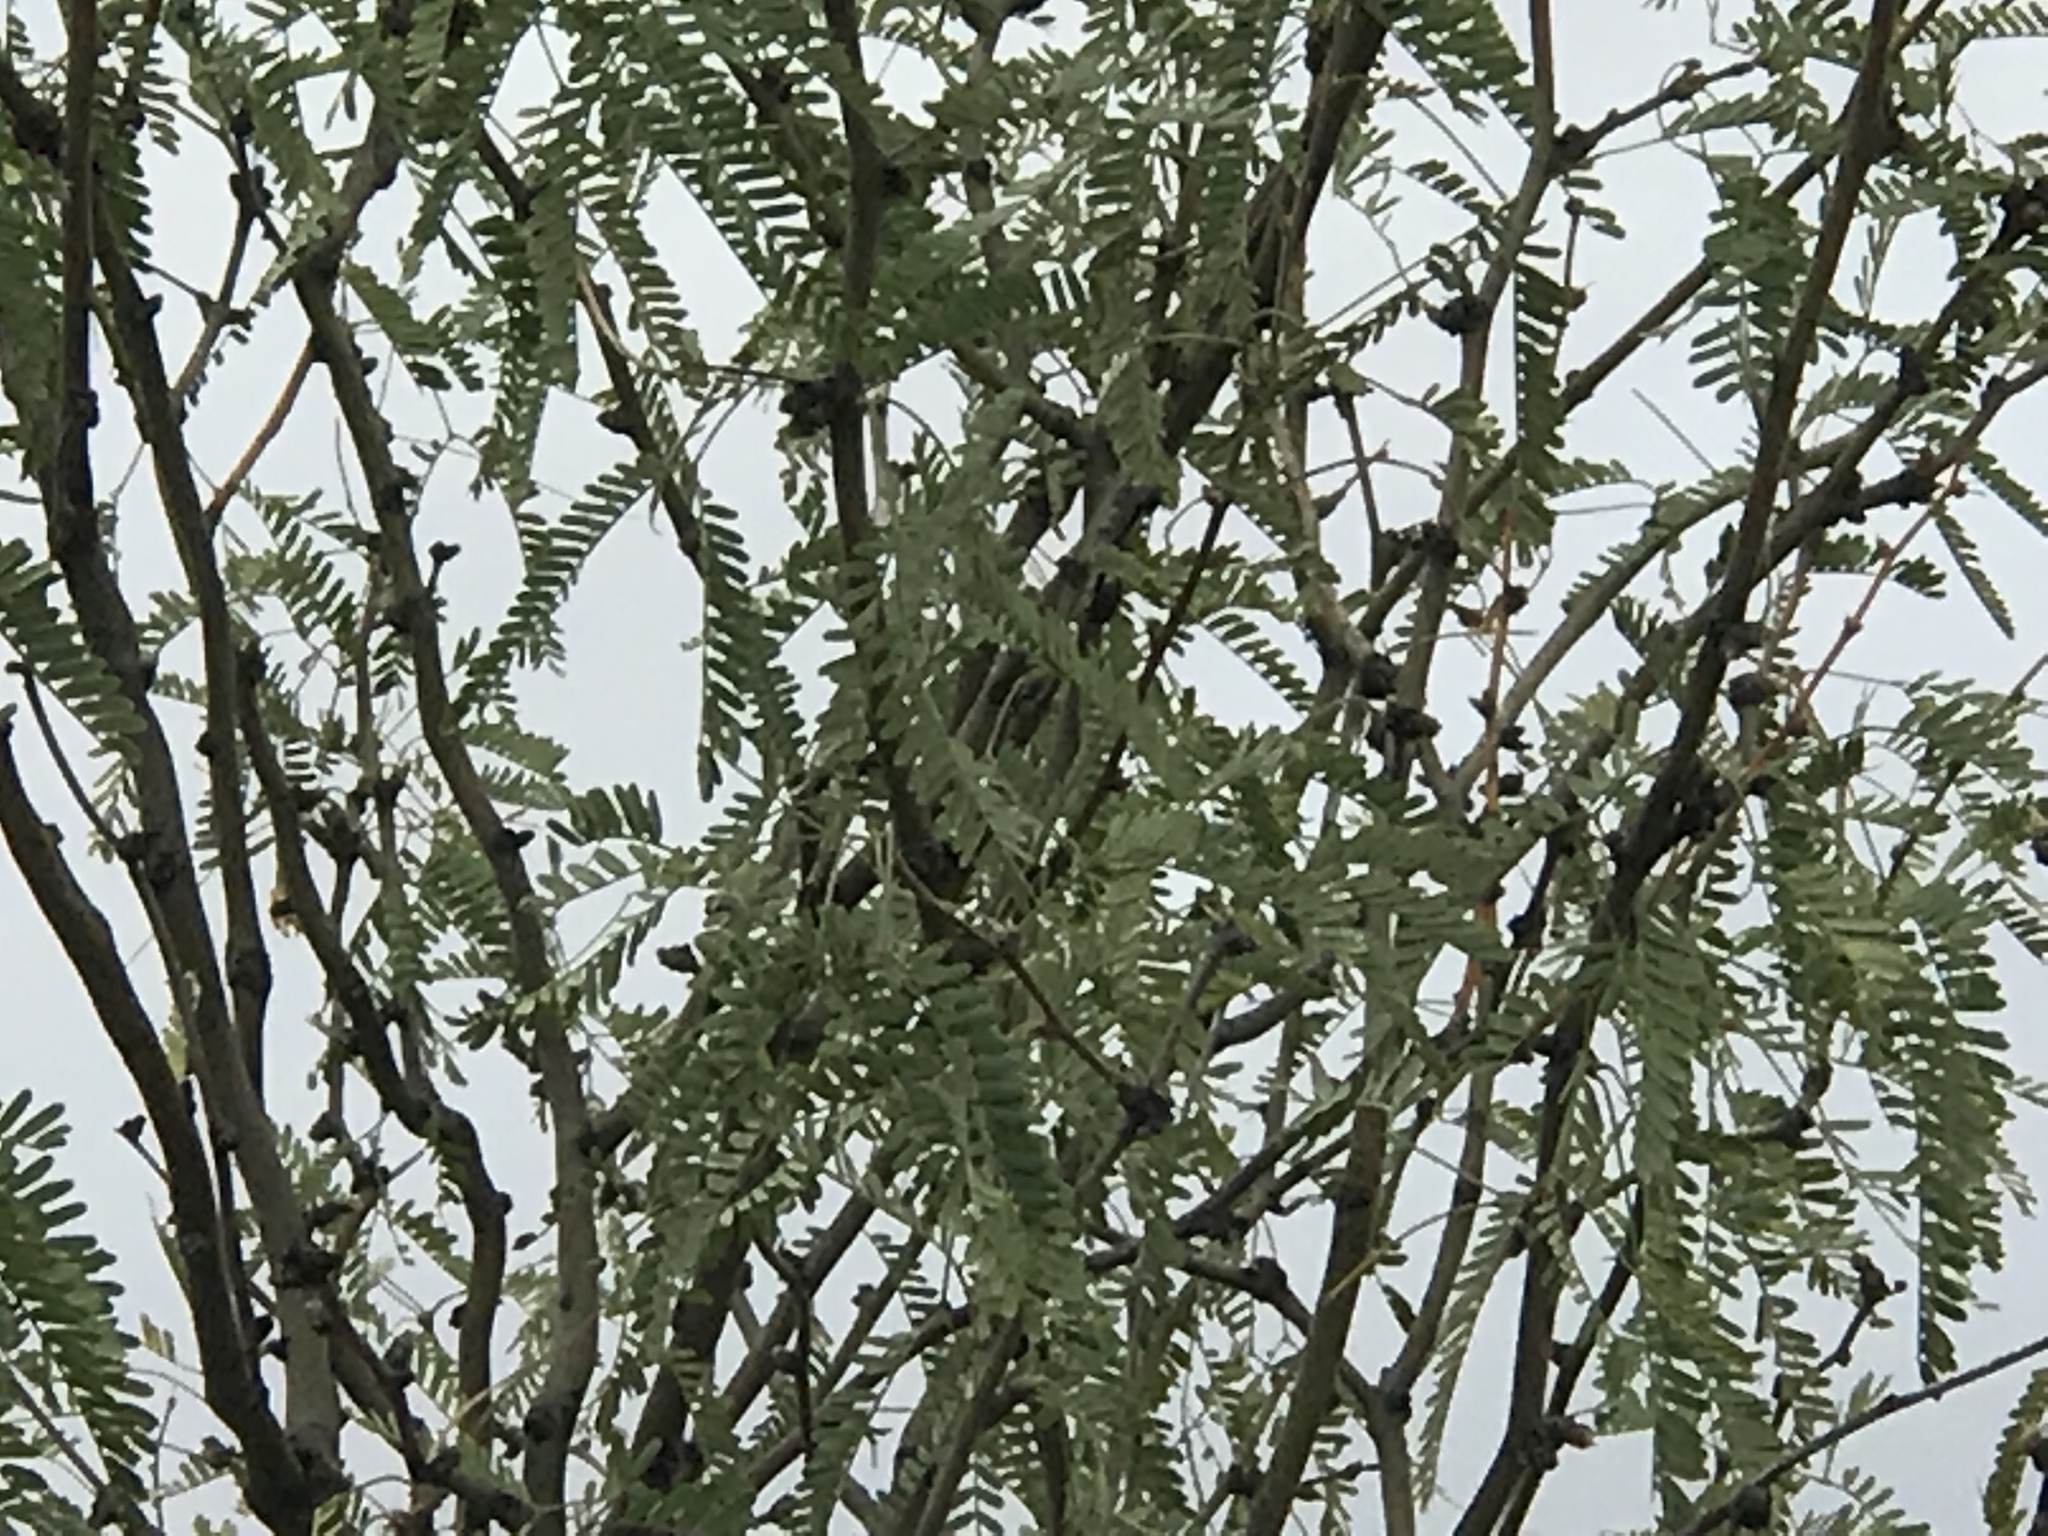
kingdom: Plantae
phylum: Tracheophyta
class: Magnoliopsida
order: Fabales
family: Fabaceae
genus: Prosopis
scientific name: Prosopis glandulosa
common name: Honey mesquite
